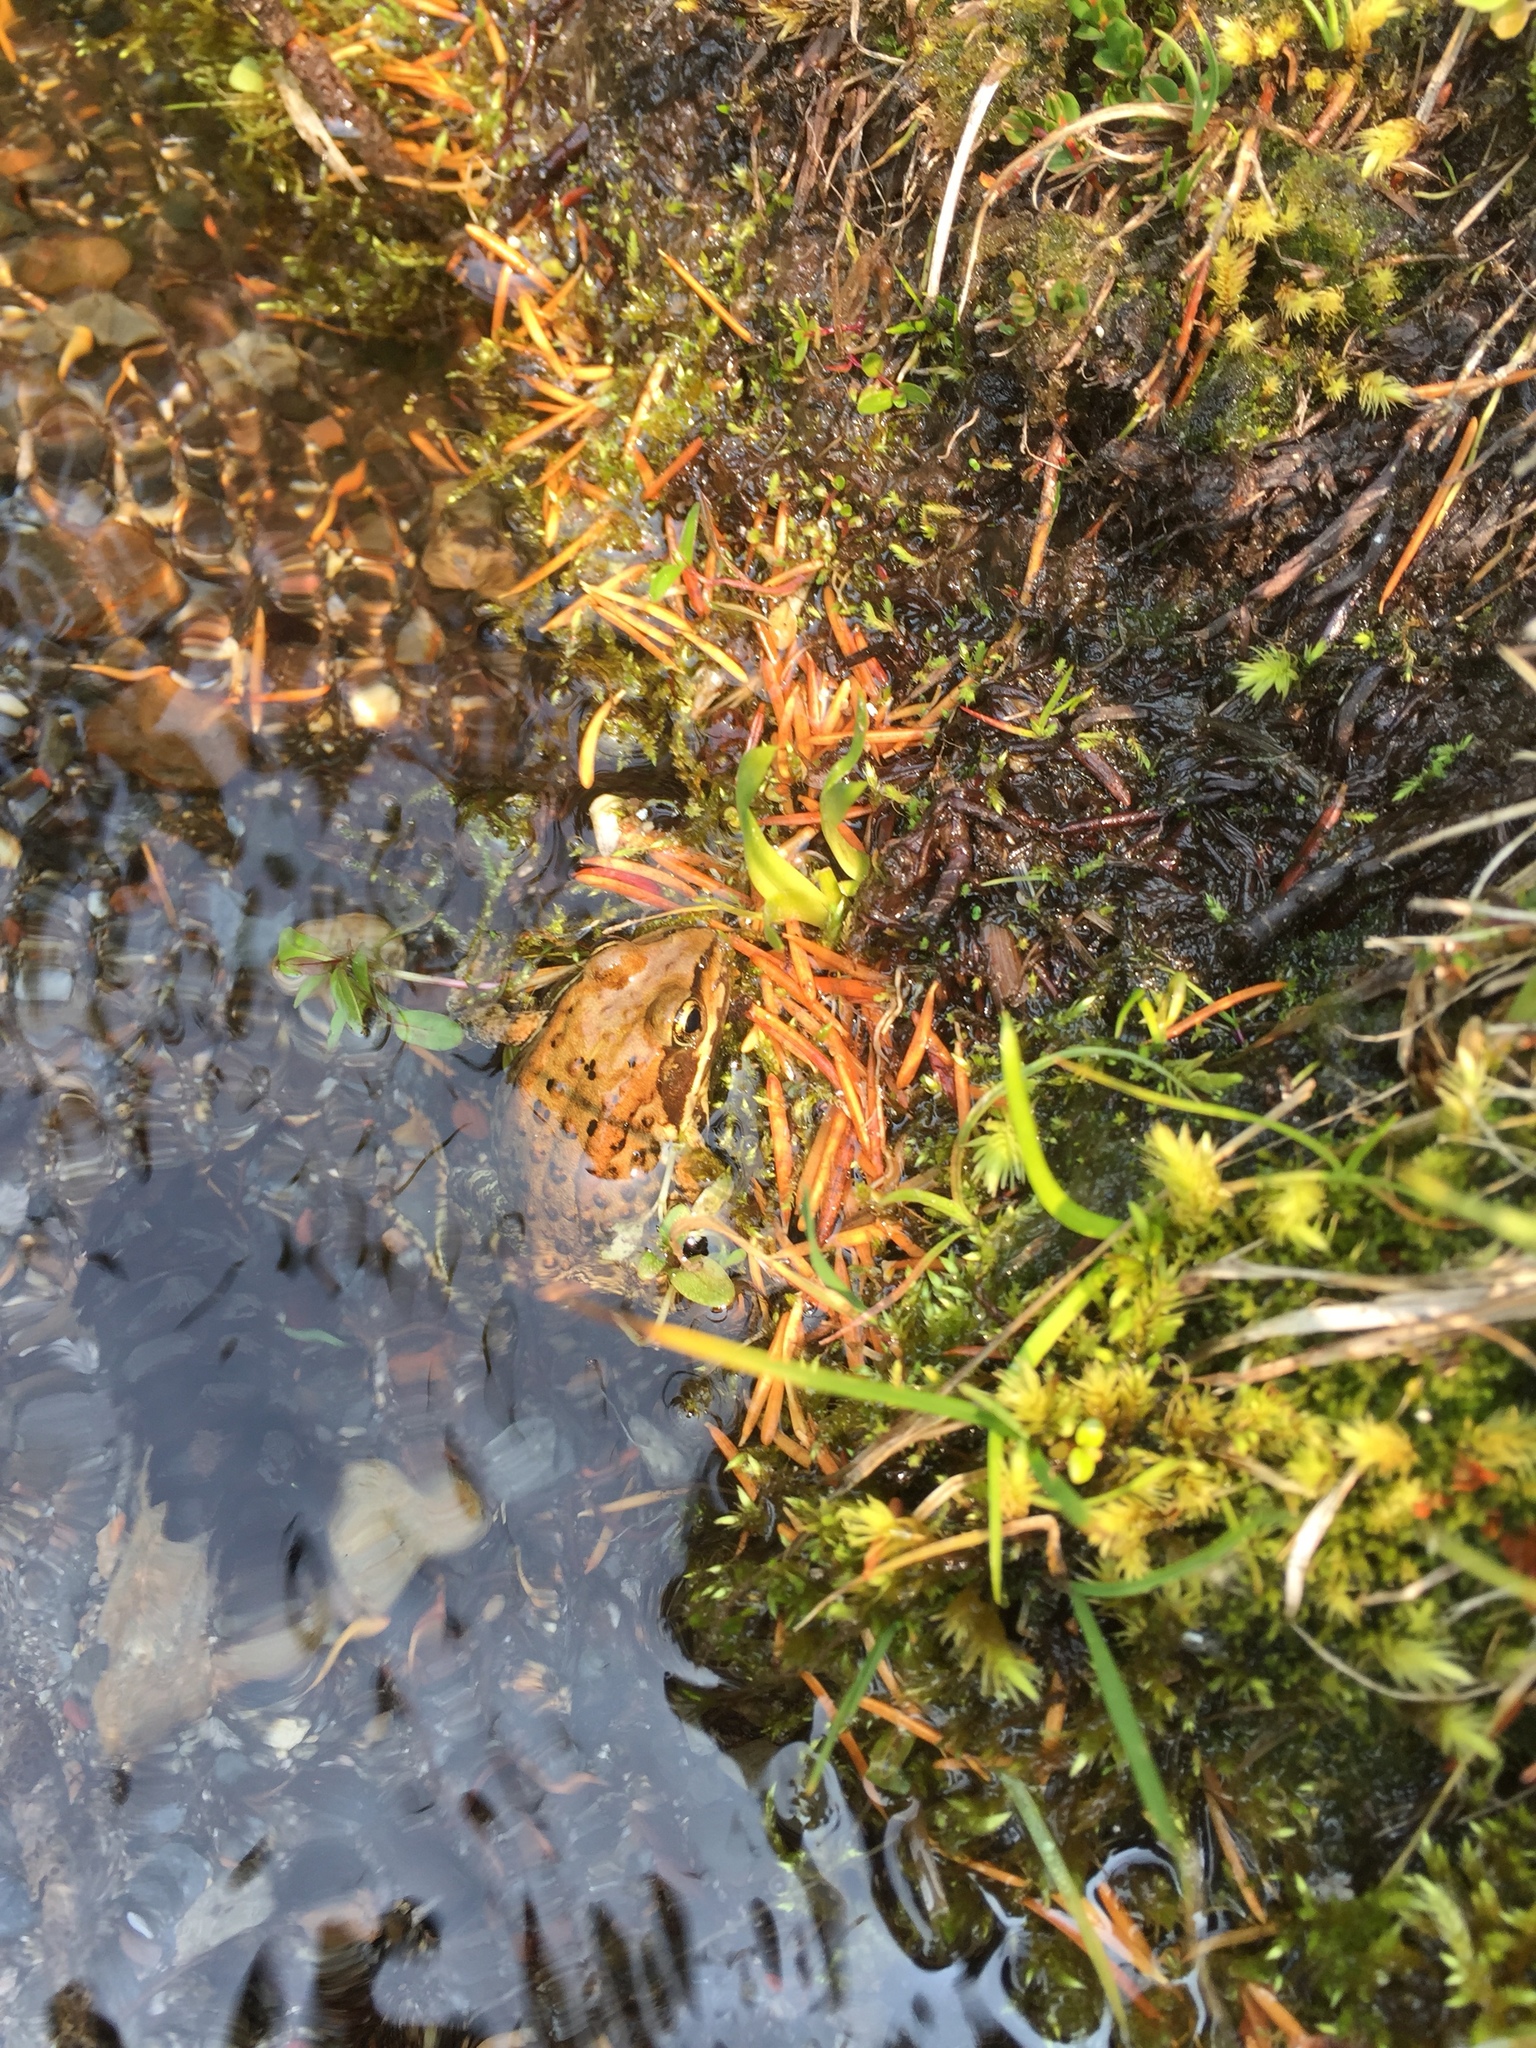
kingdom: Animalia
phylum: Chordata
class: Amphibia
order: Anura
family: Ranidae
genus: Rana
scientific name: Rana cascadae
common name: Cascades frog
